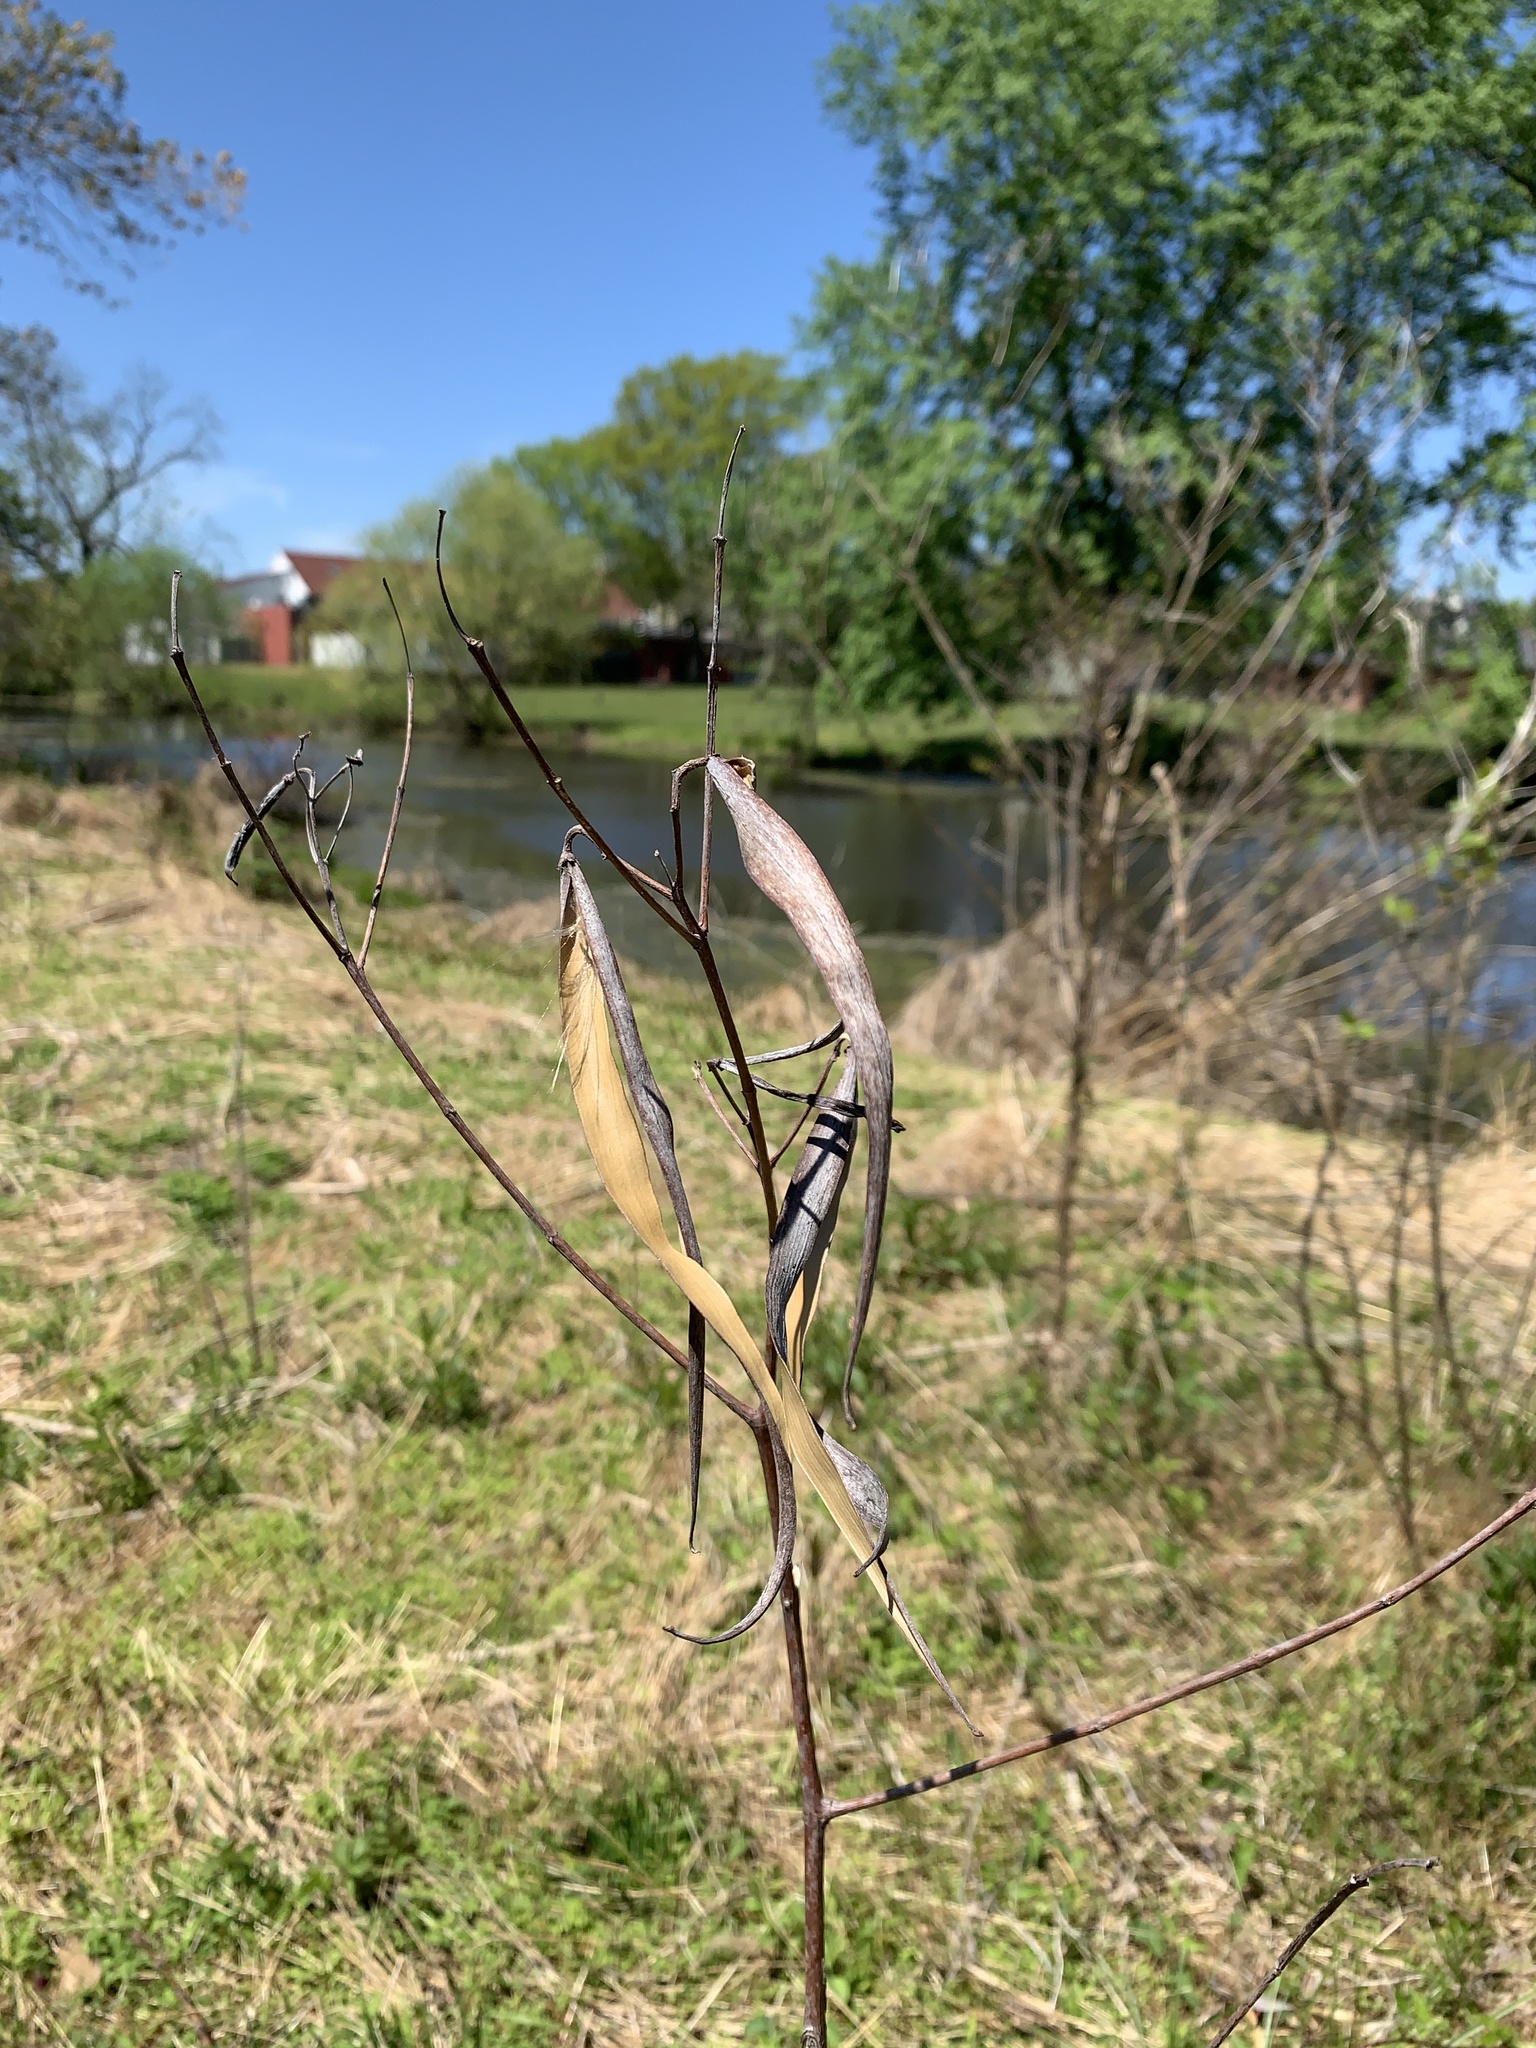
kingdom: Plantae
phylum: Tracheophyta
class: Magnoliopsida
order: Gentianales
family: Apocynaceae
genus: Apocynum
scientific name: Apocynum cannabinum
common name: Hemp dogbane
